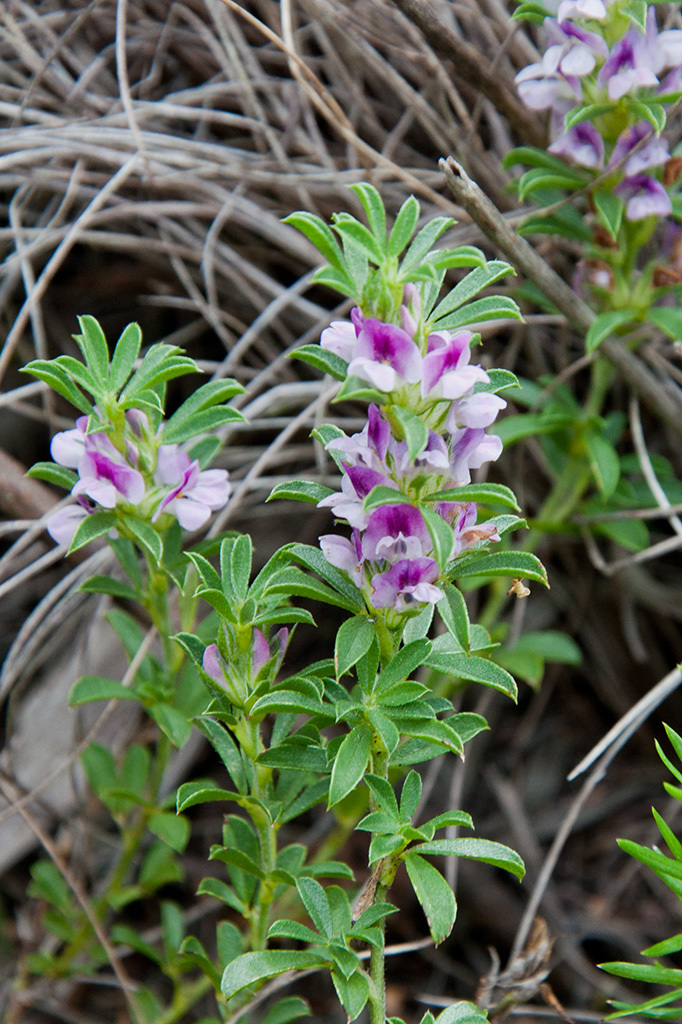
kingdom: Plantae
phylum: Tracheophyta
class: Magnoliopsida
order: Fabales
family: Fabaceae
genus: Psoralea
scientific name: Psoralea
